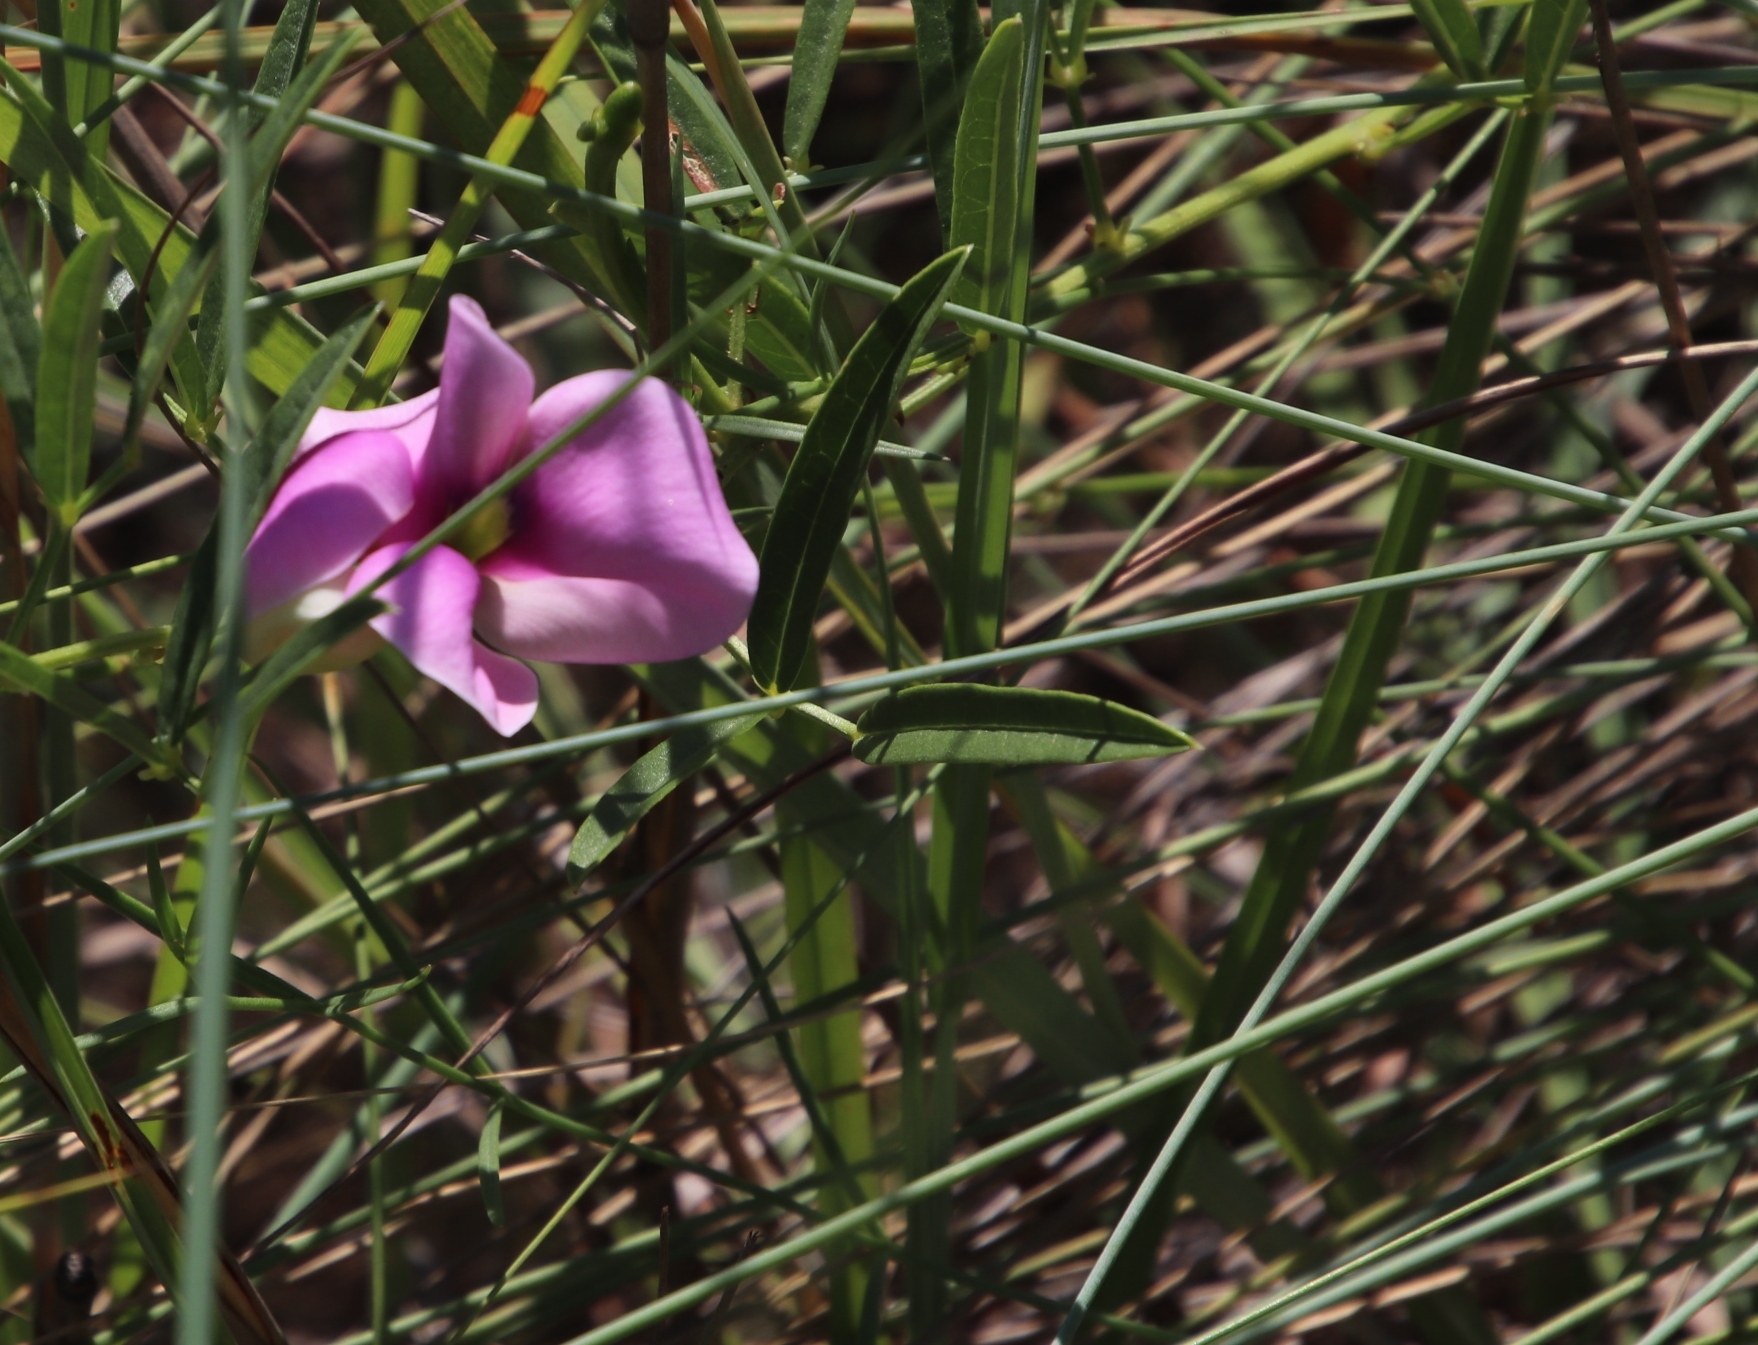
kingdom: Plantae
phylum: Tracheophyta
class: Magnoliopsida
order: Fabales
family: Fabaceae
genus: Sphenostylis
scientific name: Sphenostylis angustifolia
